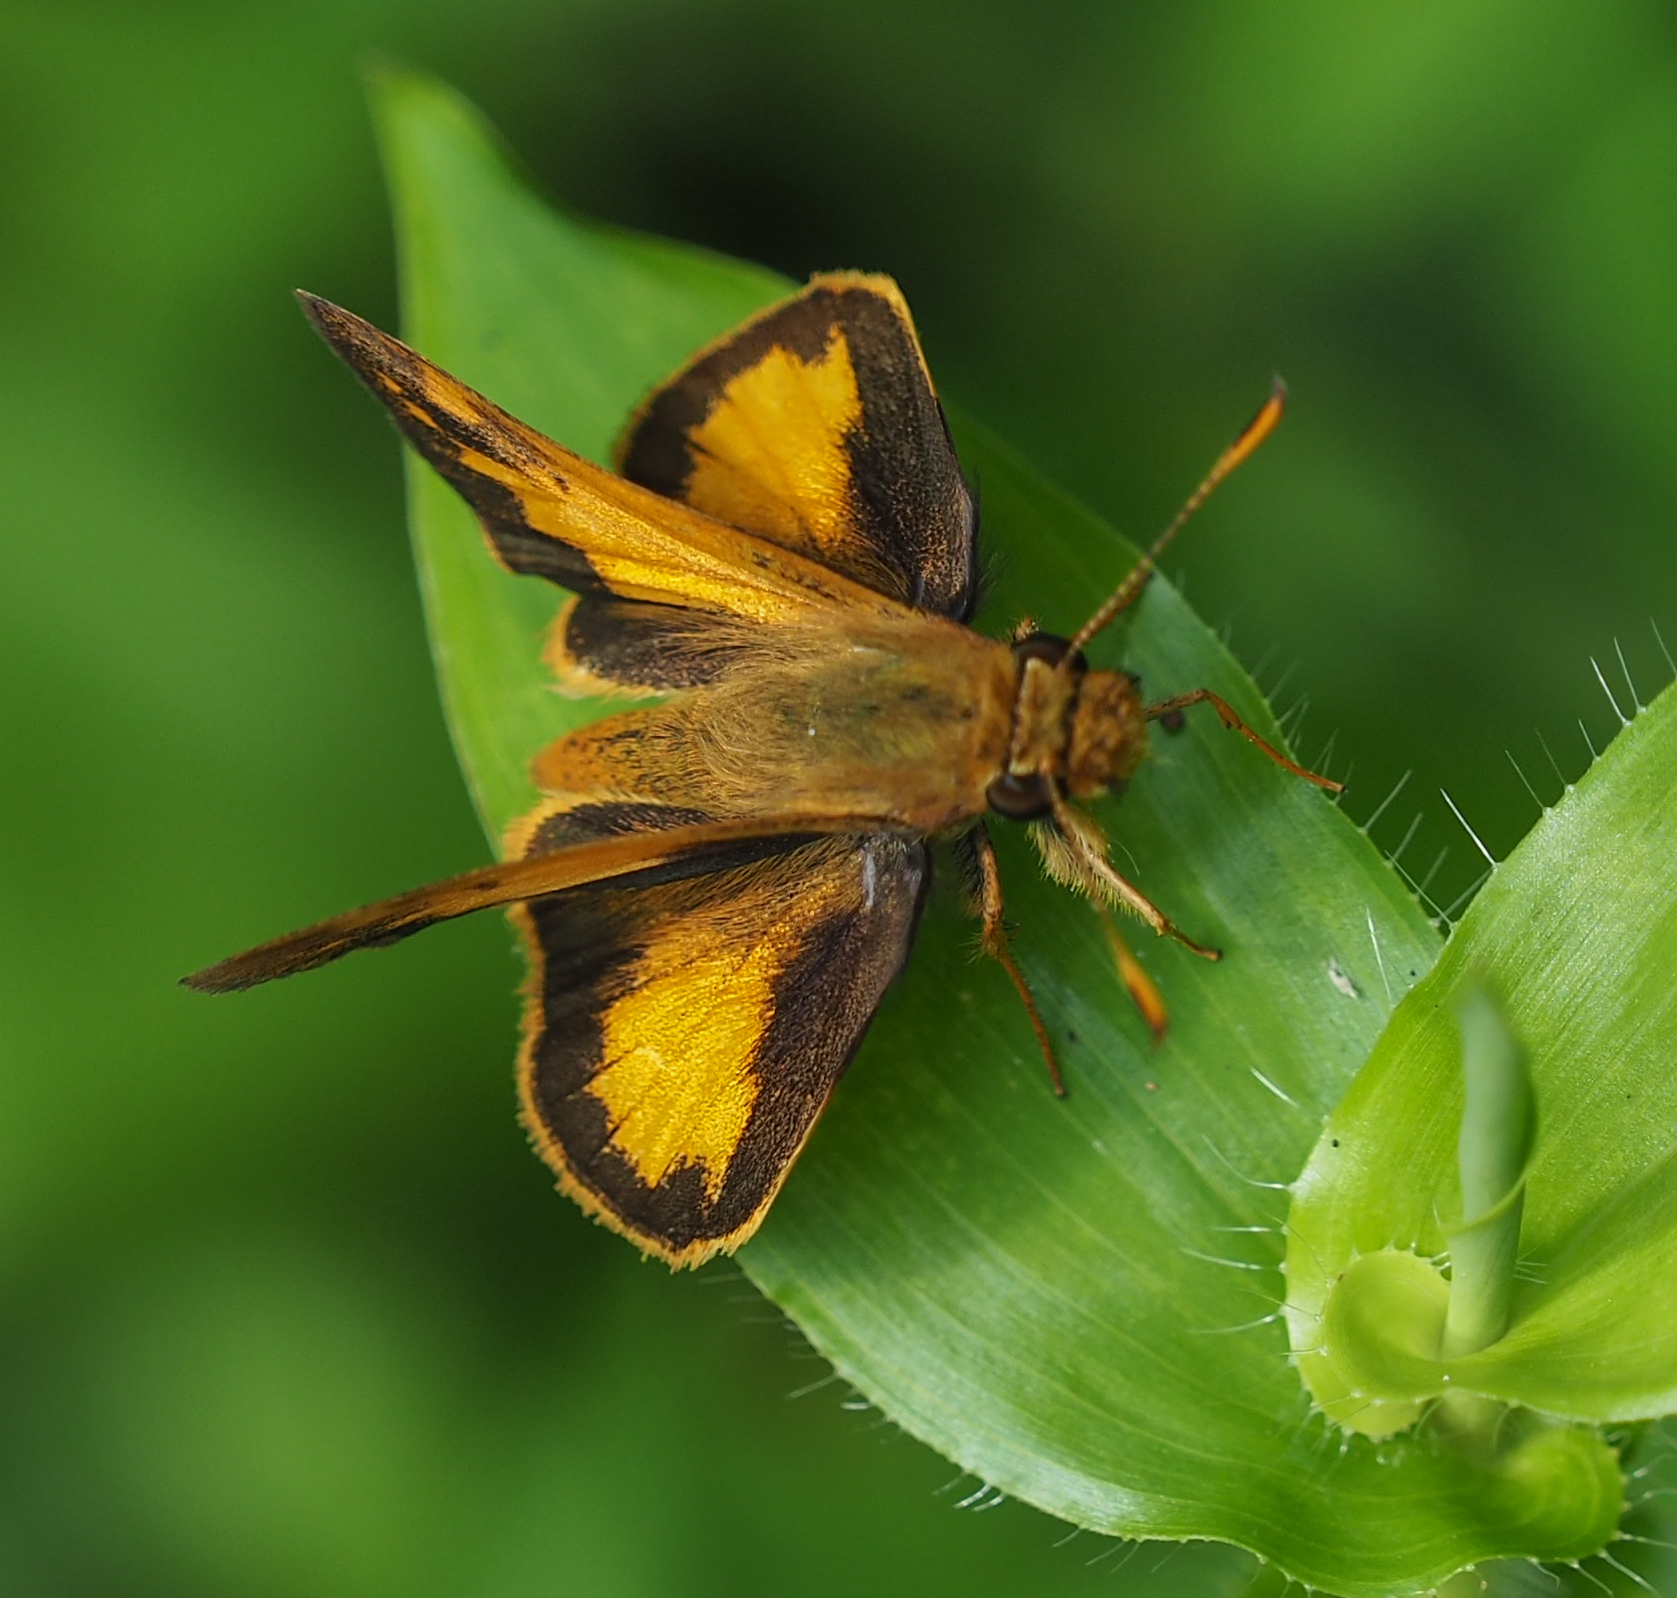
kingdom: Animalia
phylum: Arthropoda
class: Insecta
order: Lepidoptera
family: Hesperiidae
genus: Lon
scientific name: Lon zabulon
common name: Zabulon skipper
